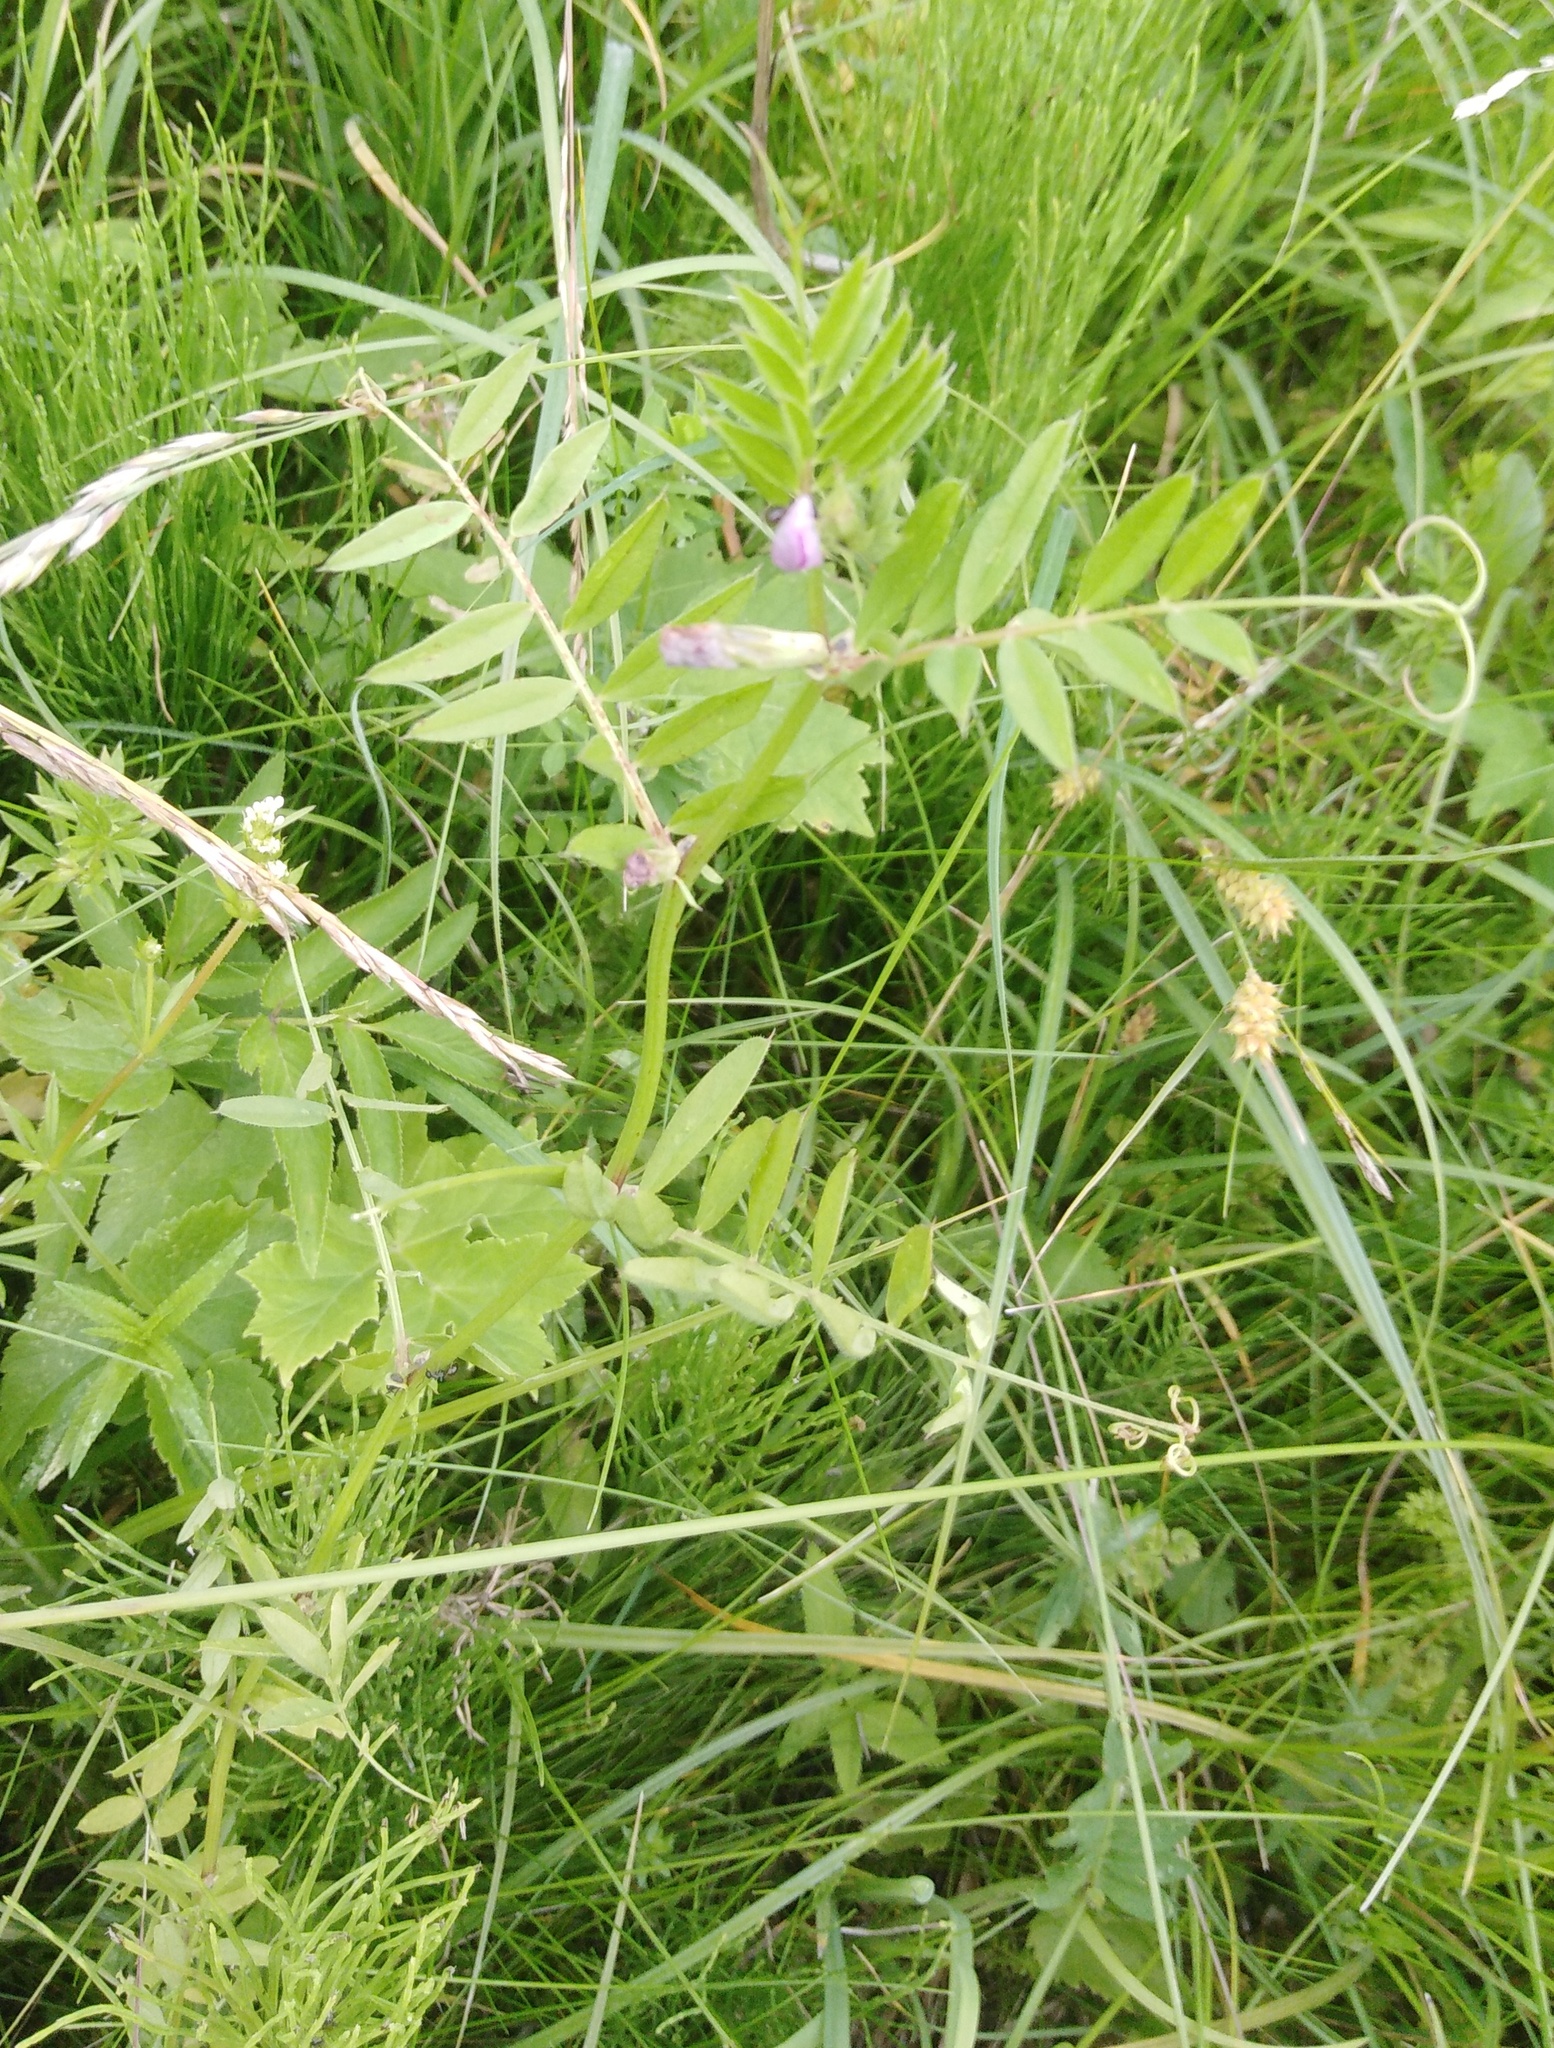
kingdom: Plantae
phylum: Tracheophyta
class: Magnoliopsida
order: Fabales
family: Fabaceae
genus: Vicia
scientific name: Vicia sepium
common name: Bush vetch
